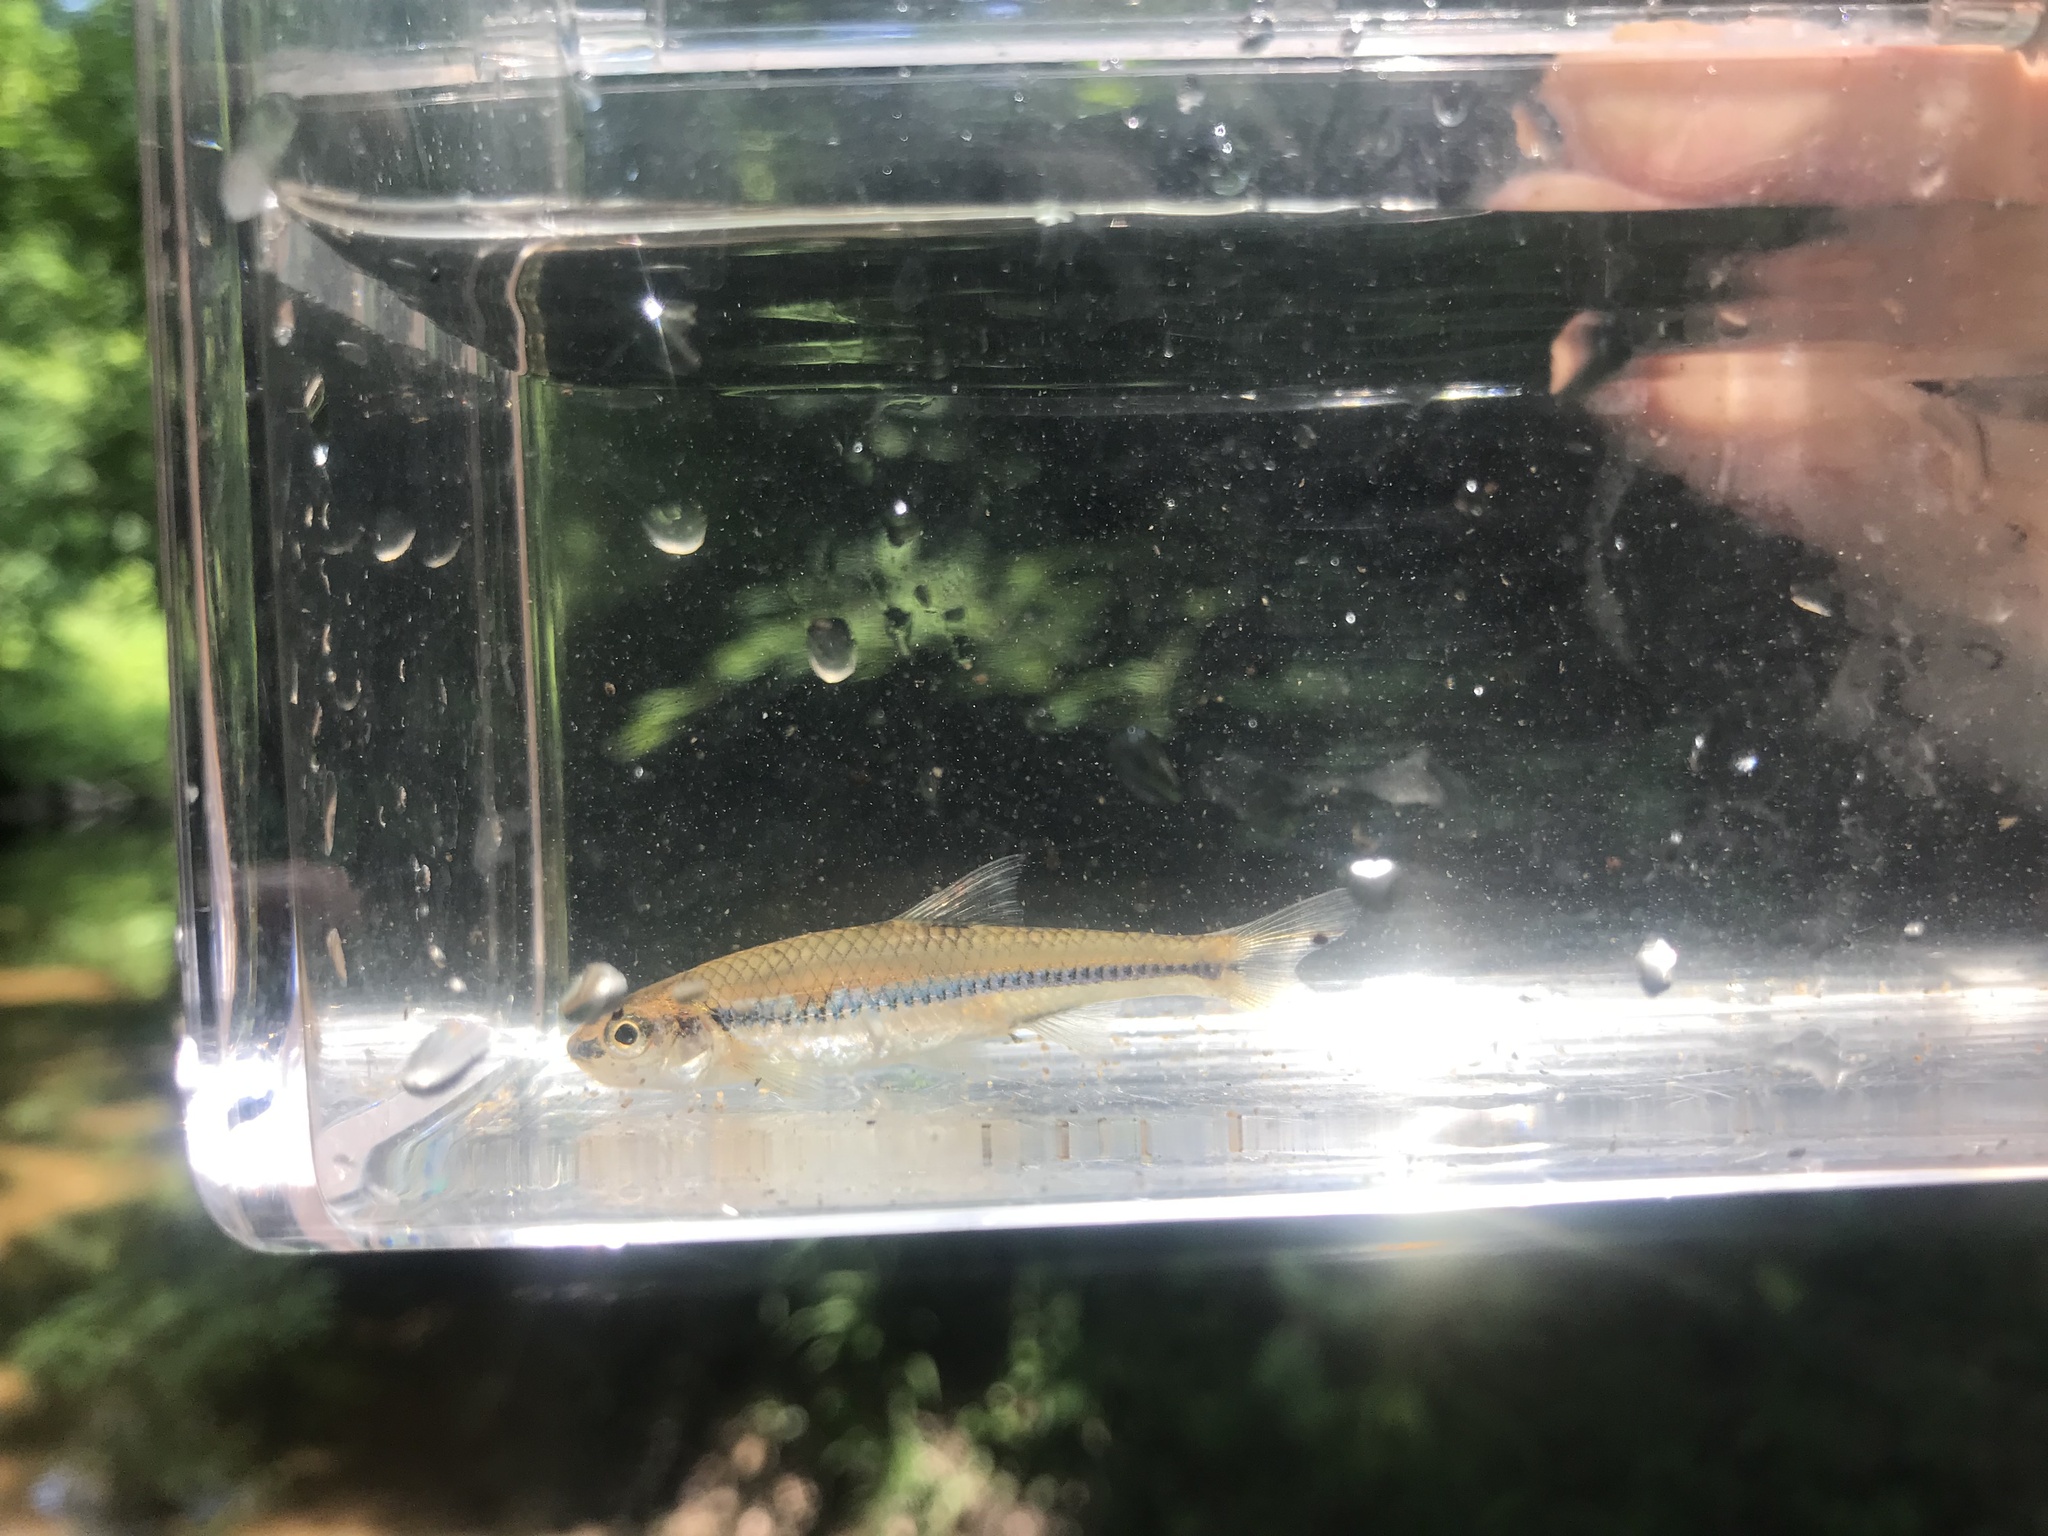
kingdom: Animalia
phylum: Chordata
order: Cypriniformes
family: Cyprinidae
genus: Notropis
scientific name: Notropis
